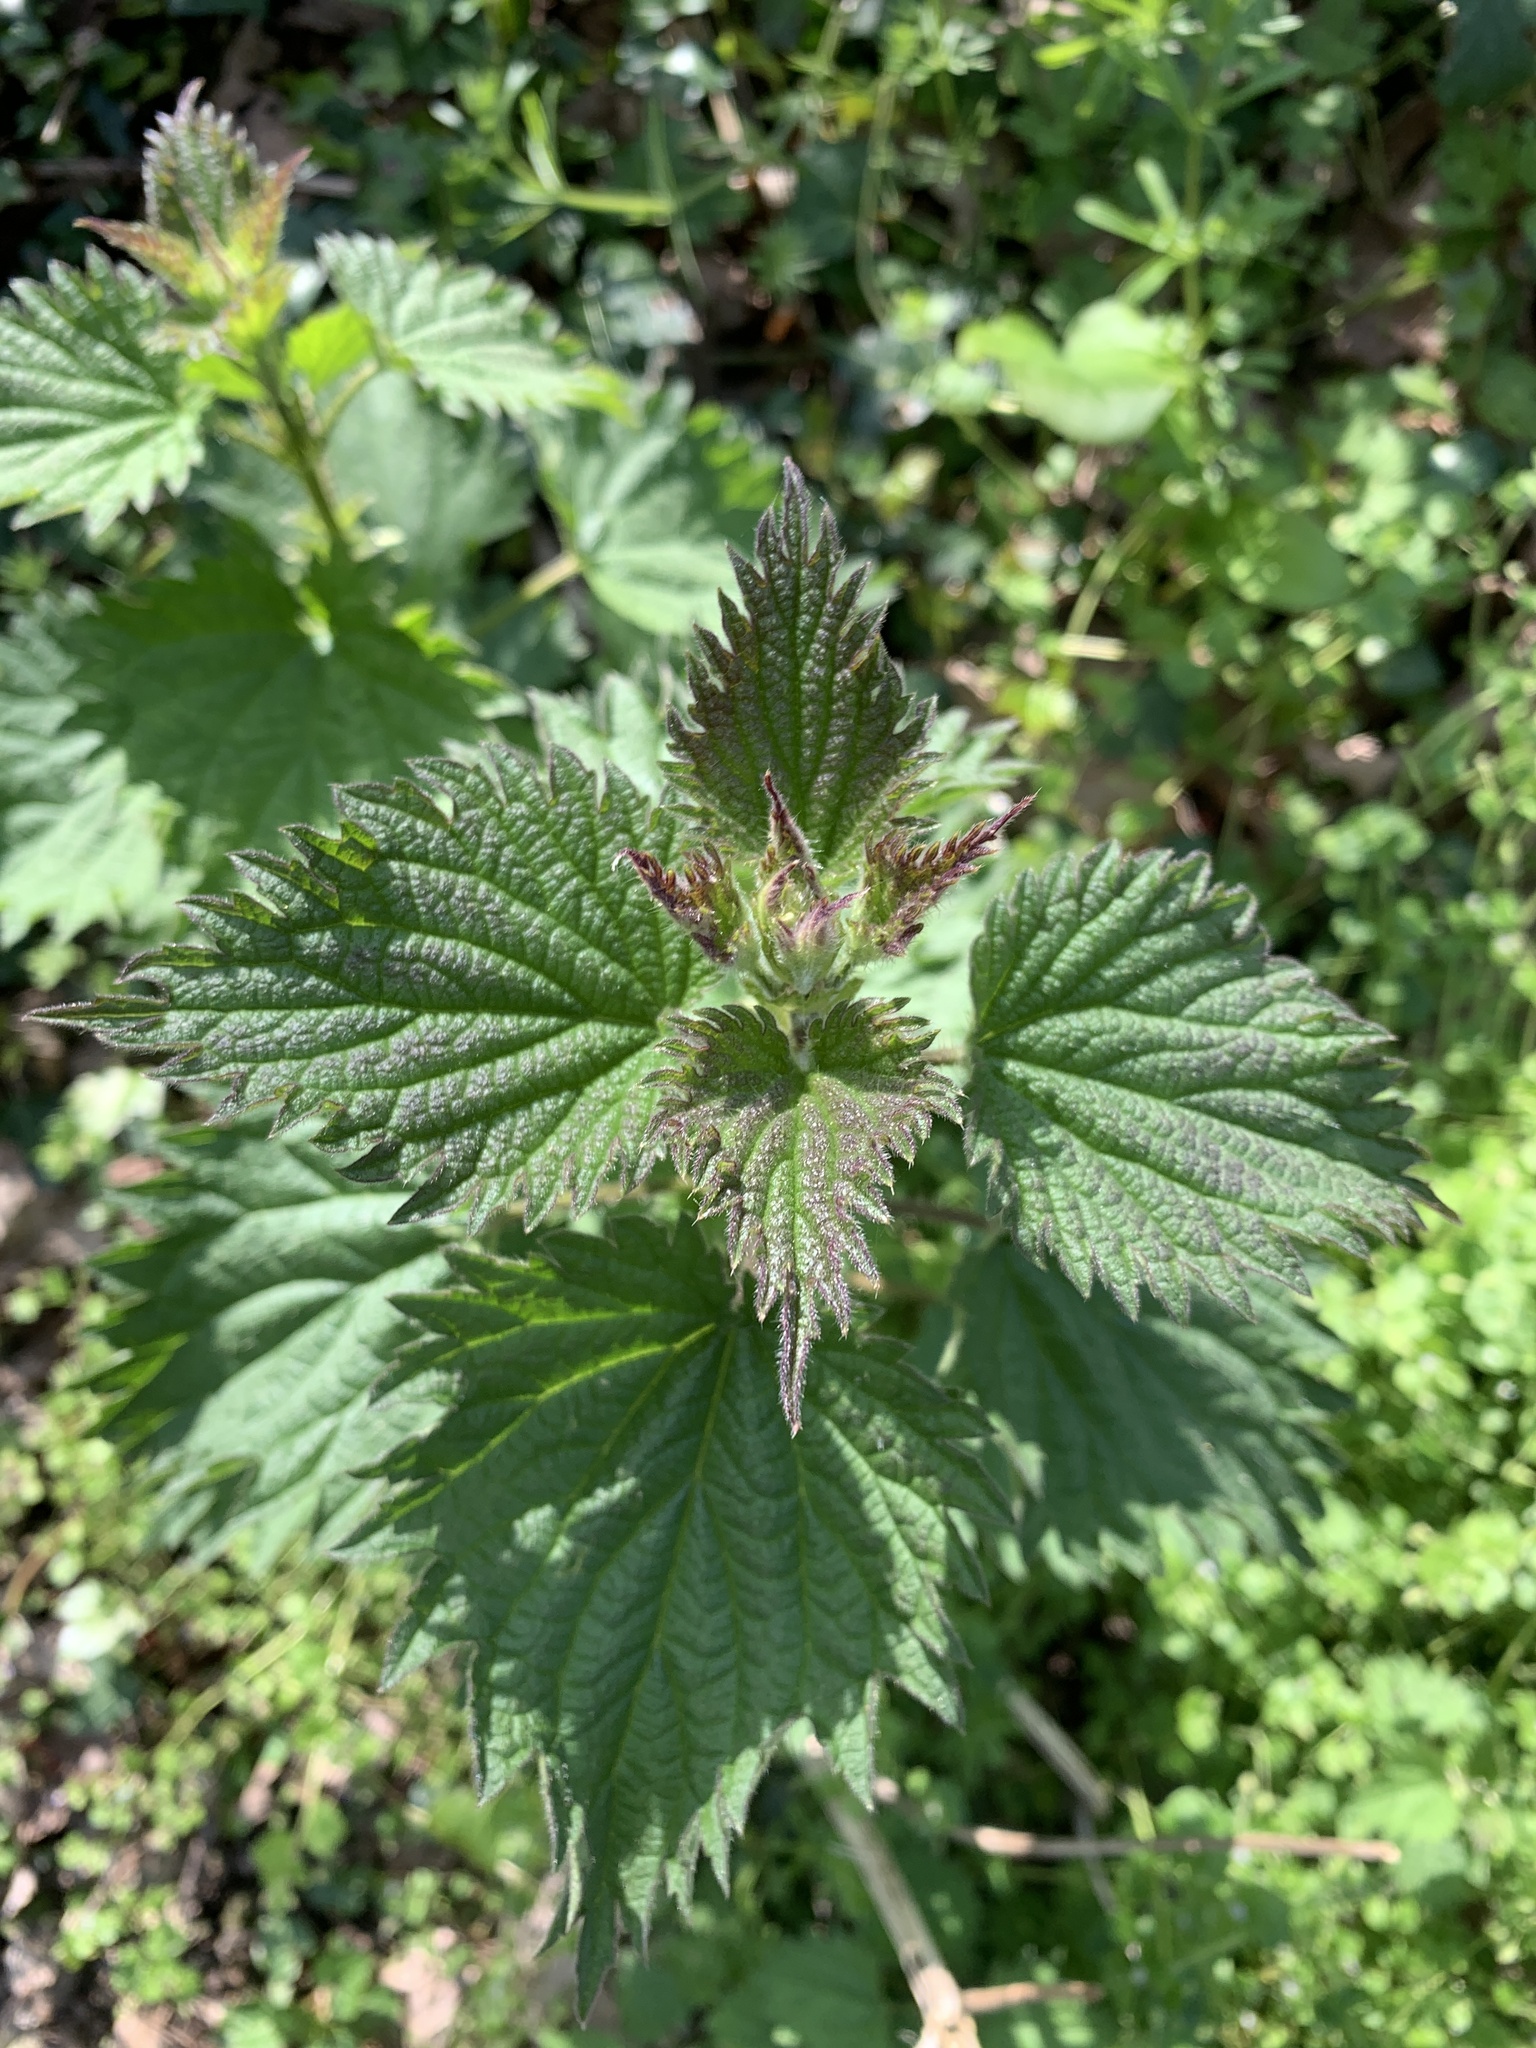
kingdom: Plantae
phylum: Tracheophyta
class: Magnoliopsida
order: Rosales
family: Urticaceae
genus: Urtica
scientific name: Urtica dioica
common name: Common nettle
